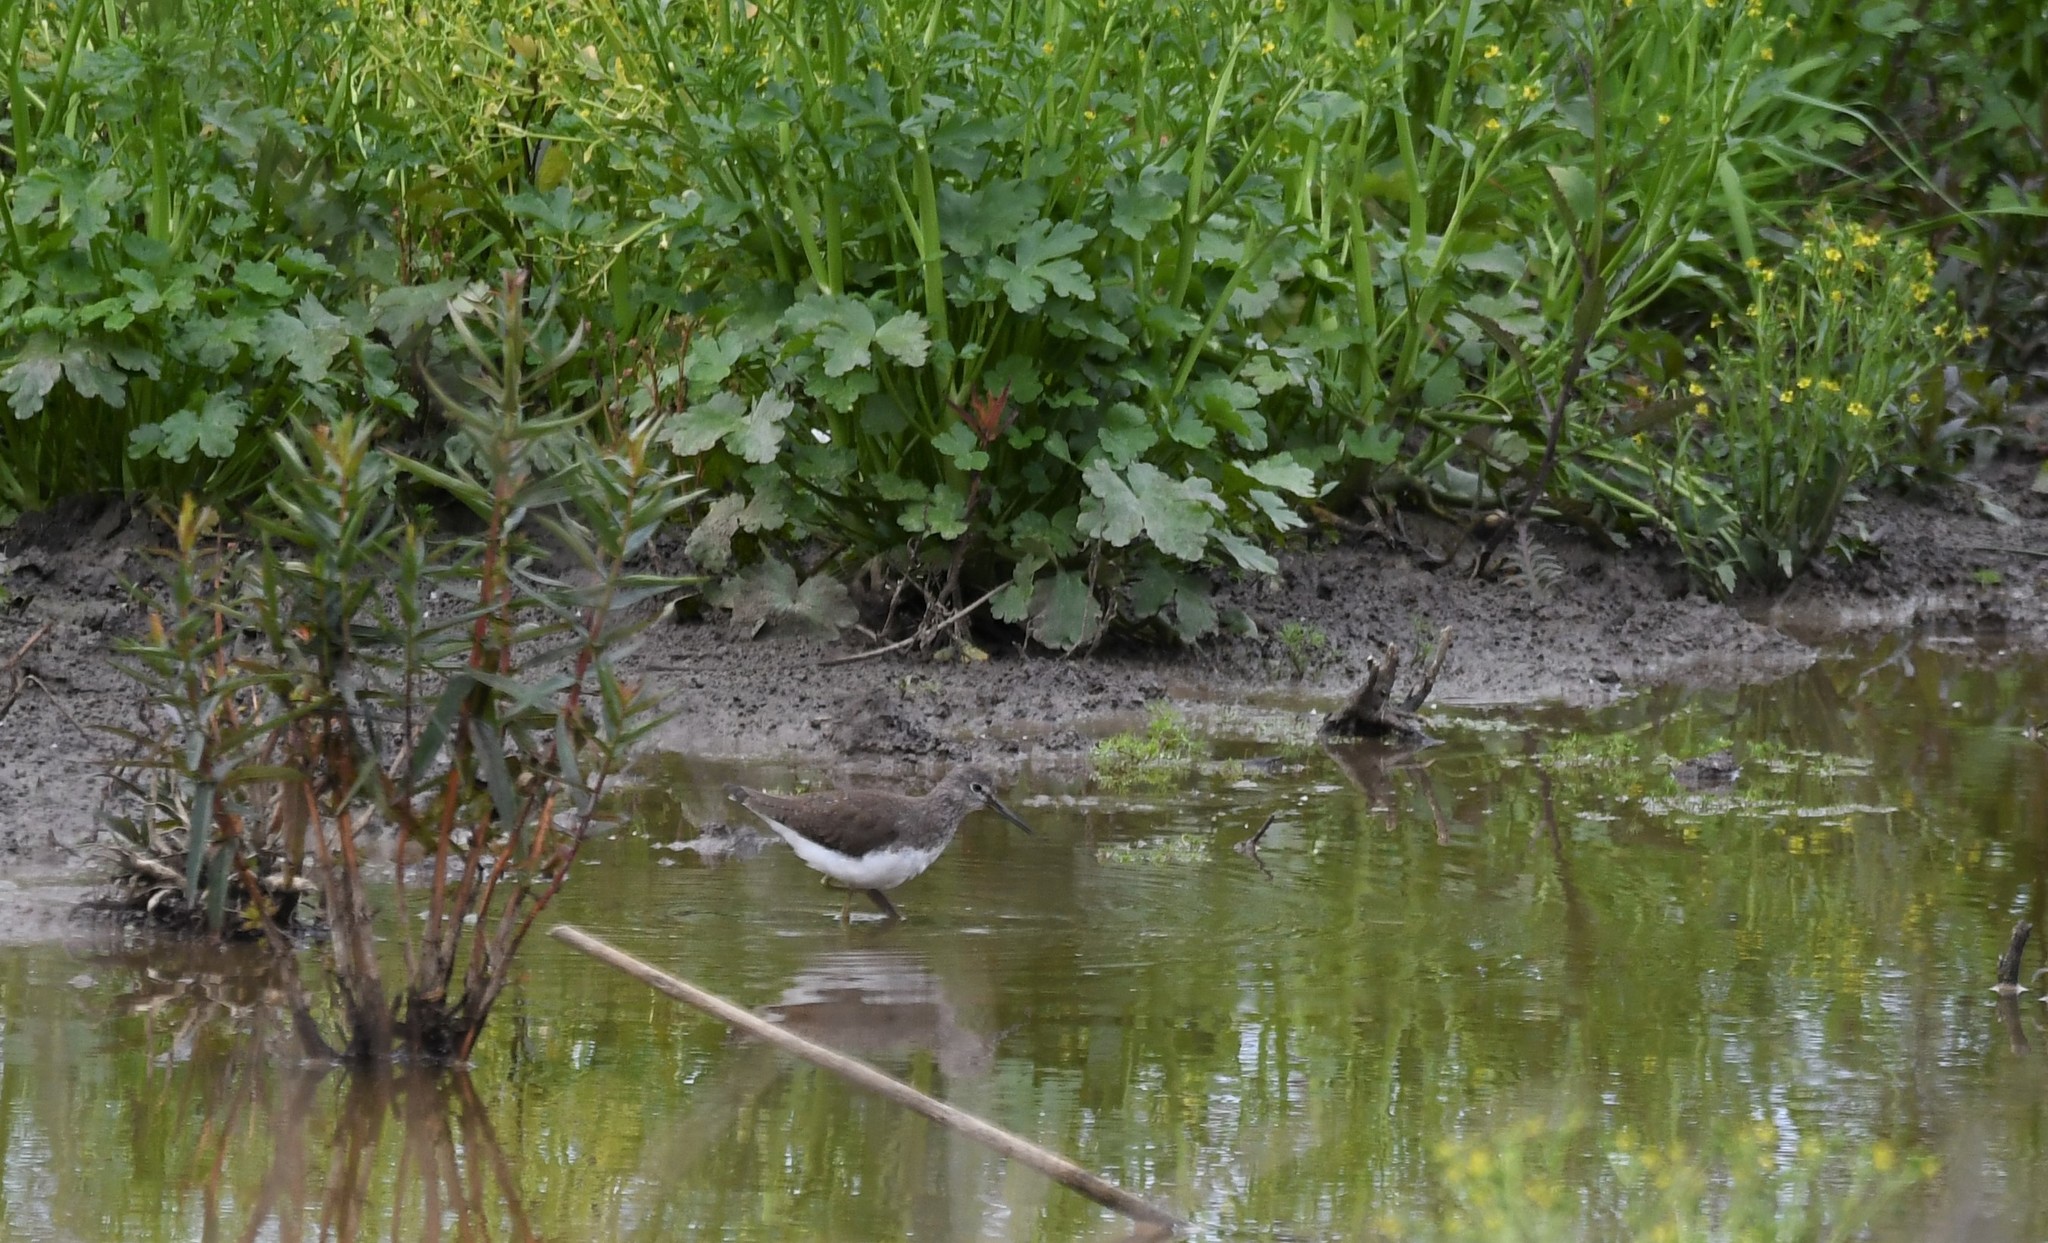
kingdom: Animalia
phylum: Chordata
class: Aves
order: Charadriiformes
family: Scolopacidae
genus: Tringa
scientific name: Tringa ochropus
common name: Green sandpiper
